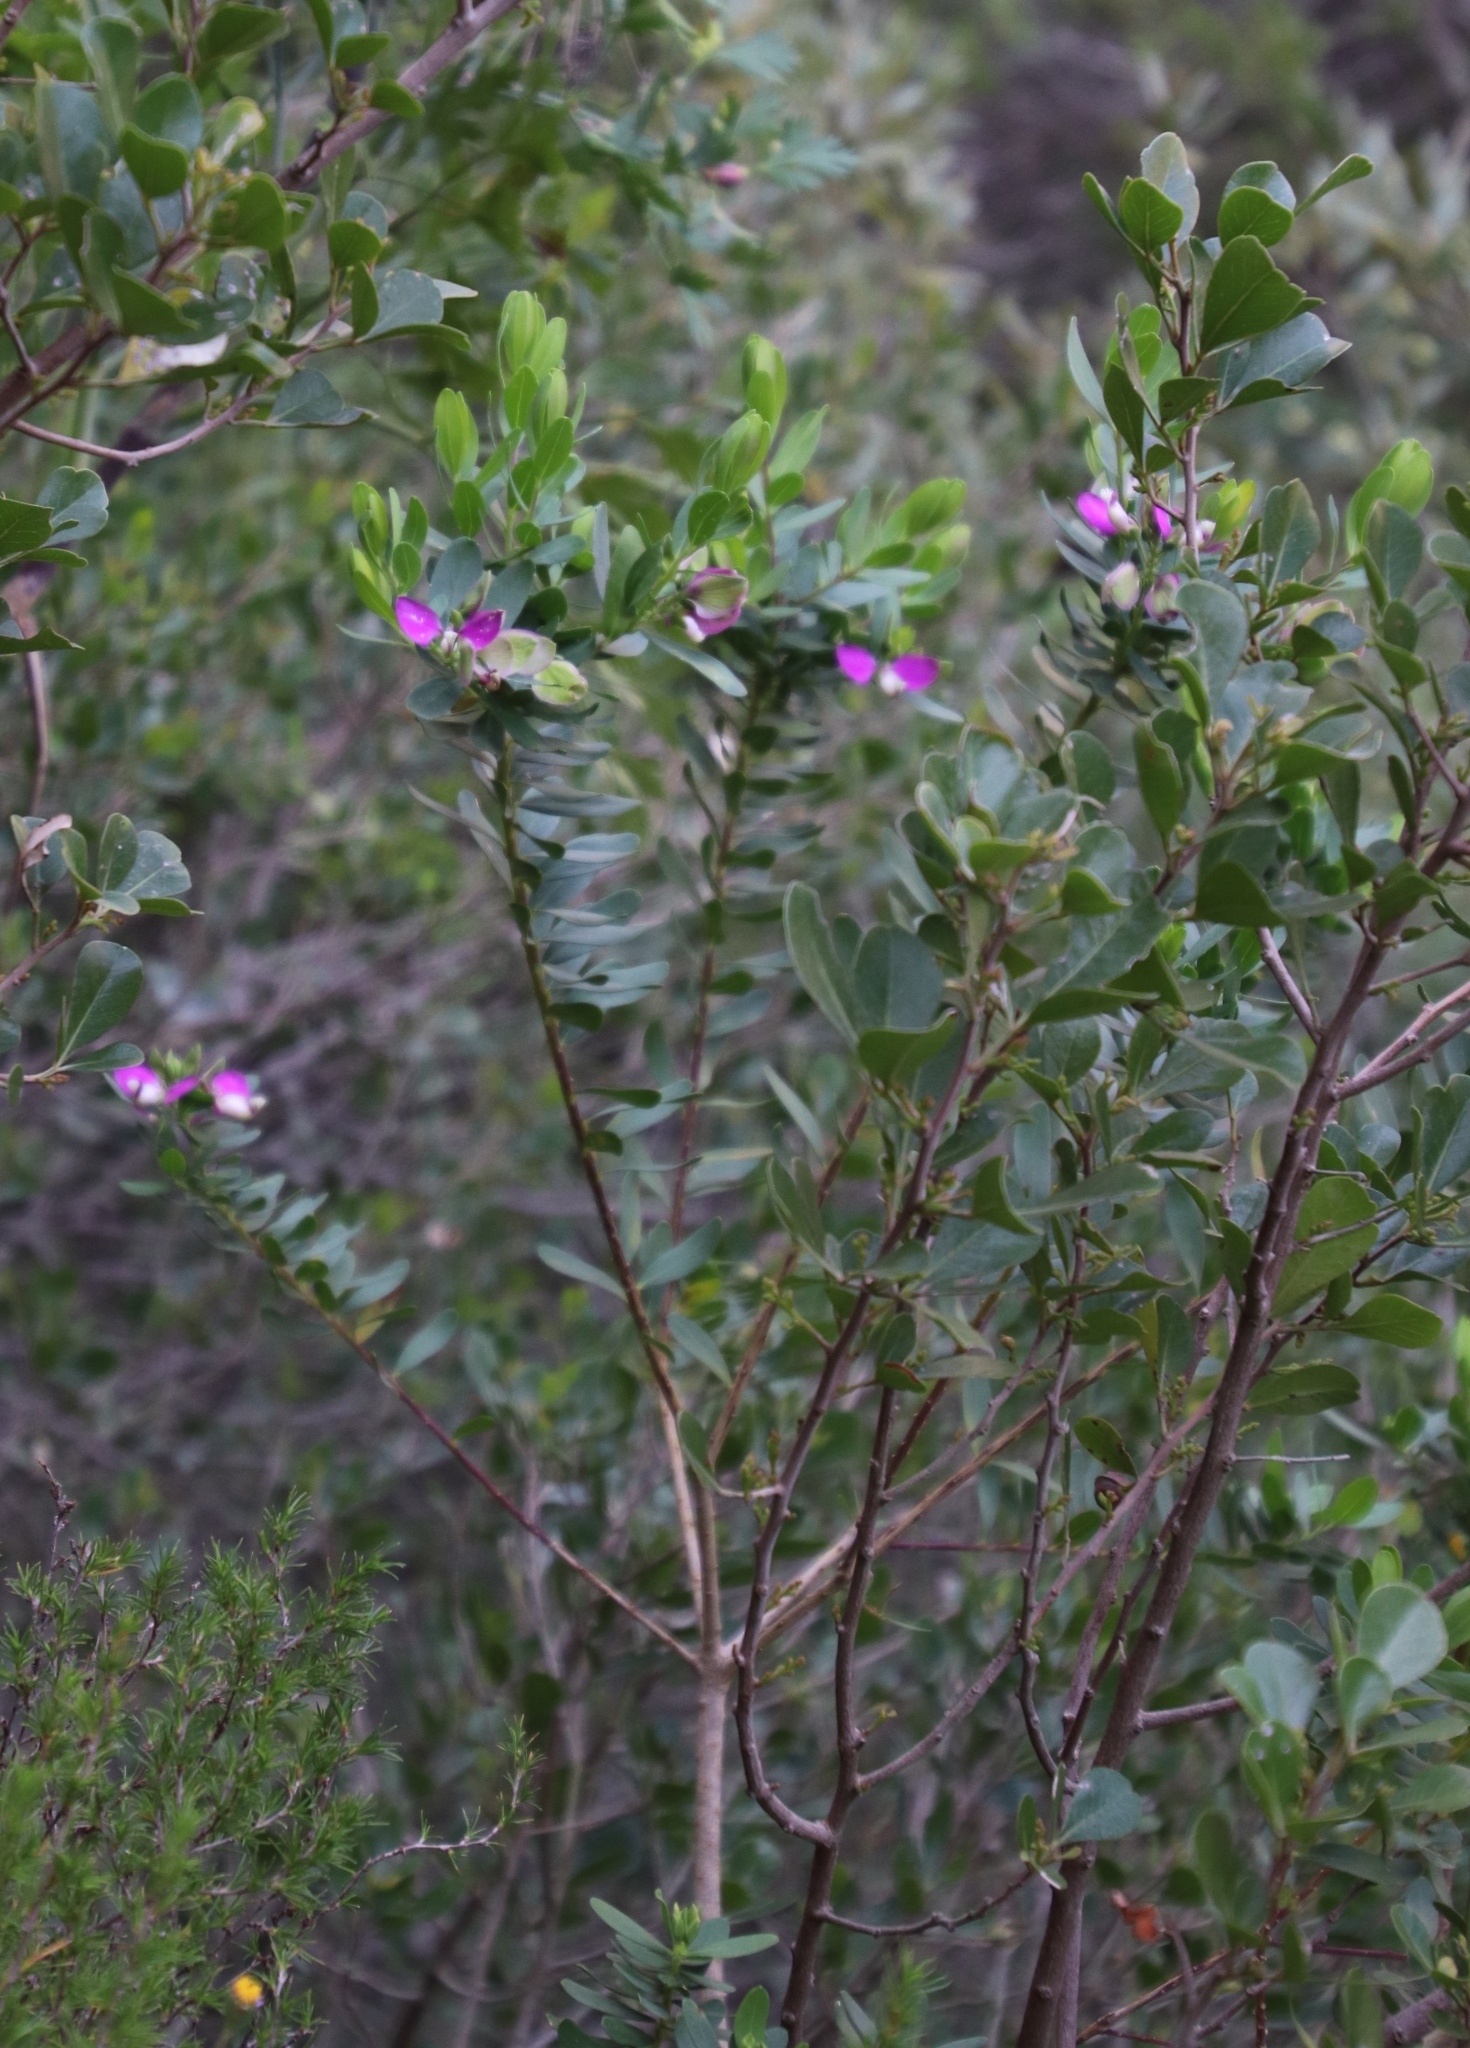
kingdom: Plantae
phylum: Tracheophyta
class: Magnoliopsida
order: Fabales
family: Polygalaceae
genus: Polygala
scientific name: Polygala myrtifolia
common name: Myrtle-leaf milkwort
